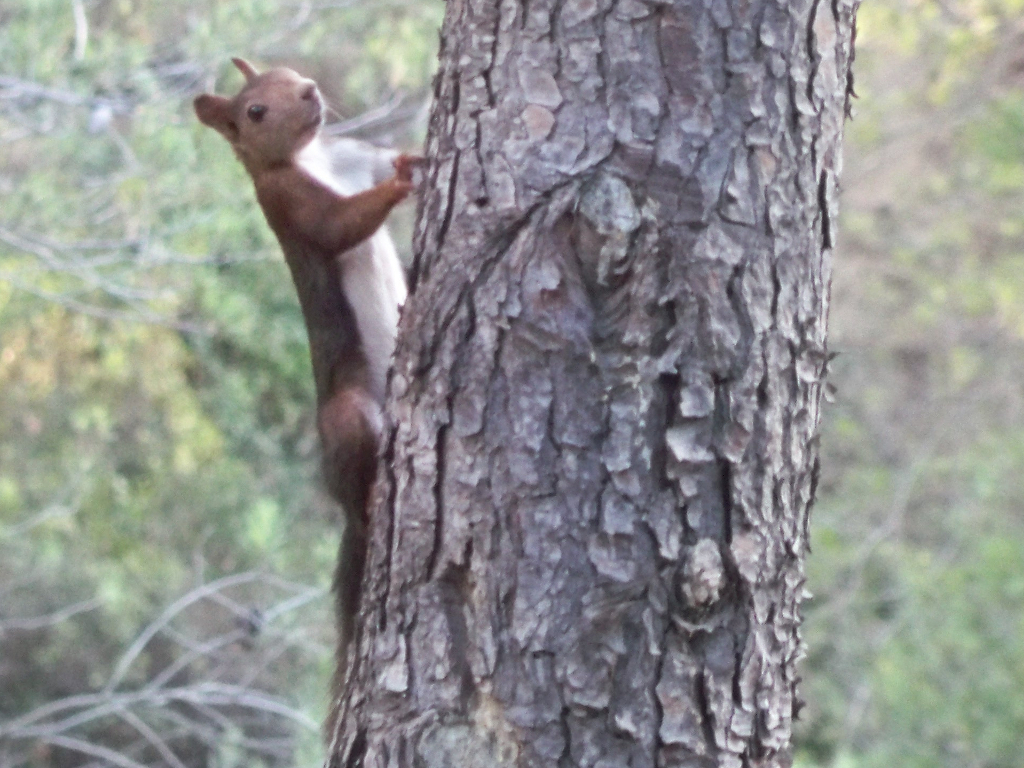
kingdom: Animalia
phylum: Chordata
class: Mammalia
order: Rodentia
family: Sciuridae
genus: Sciurus
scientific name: Sciurus vulgaris
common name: Eurasian red squirrel
